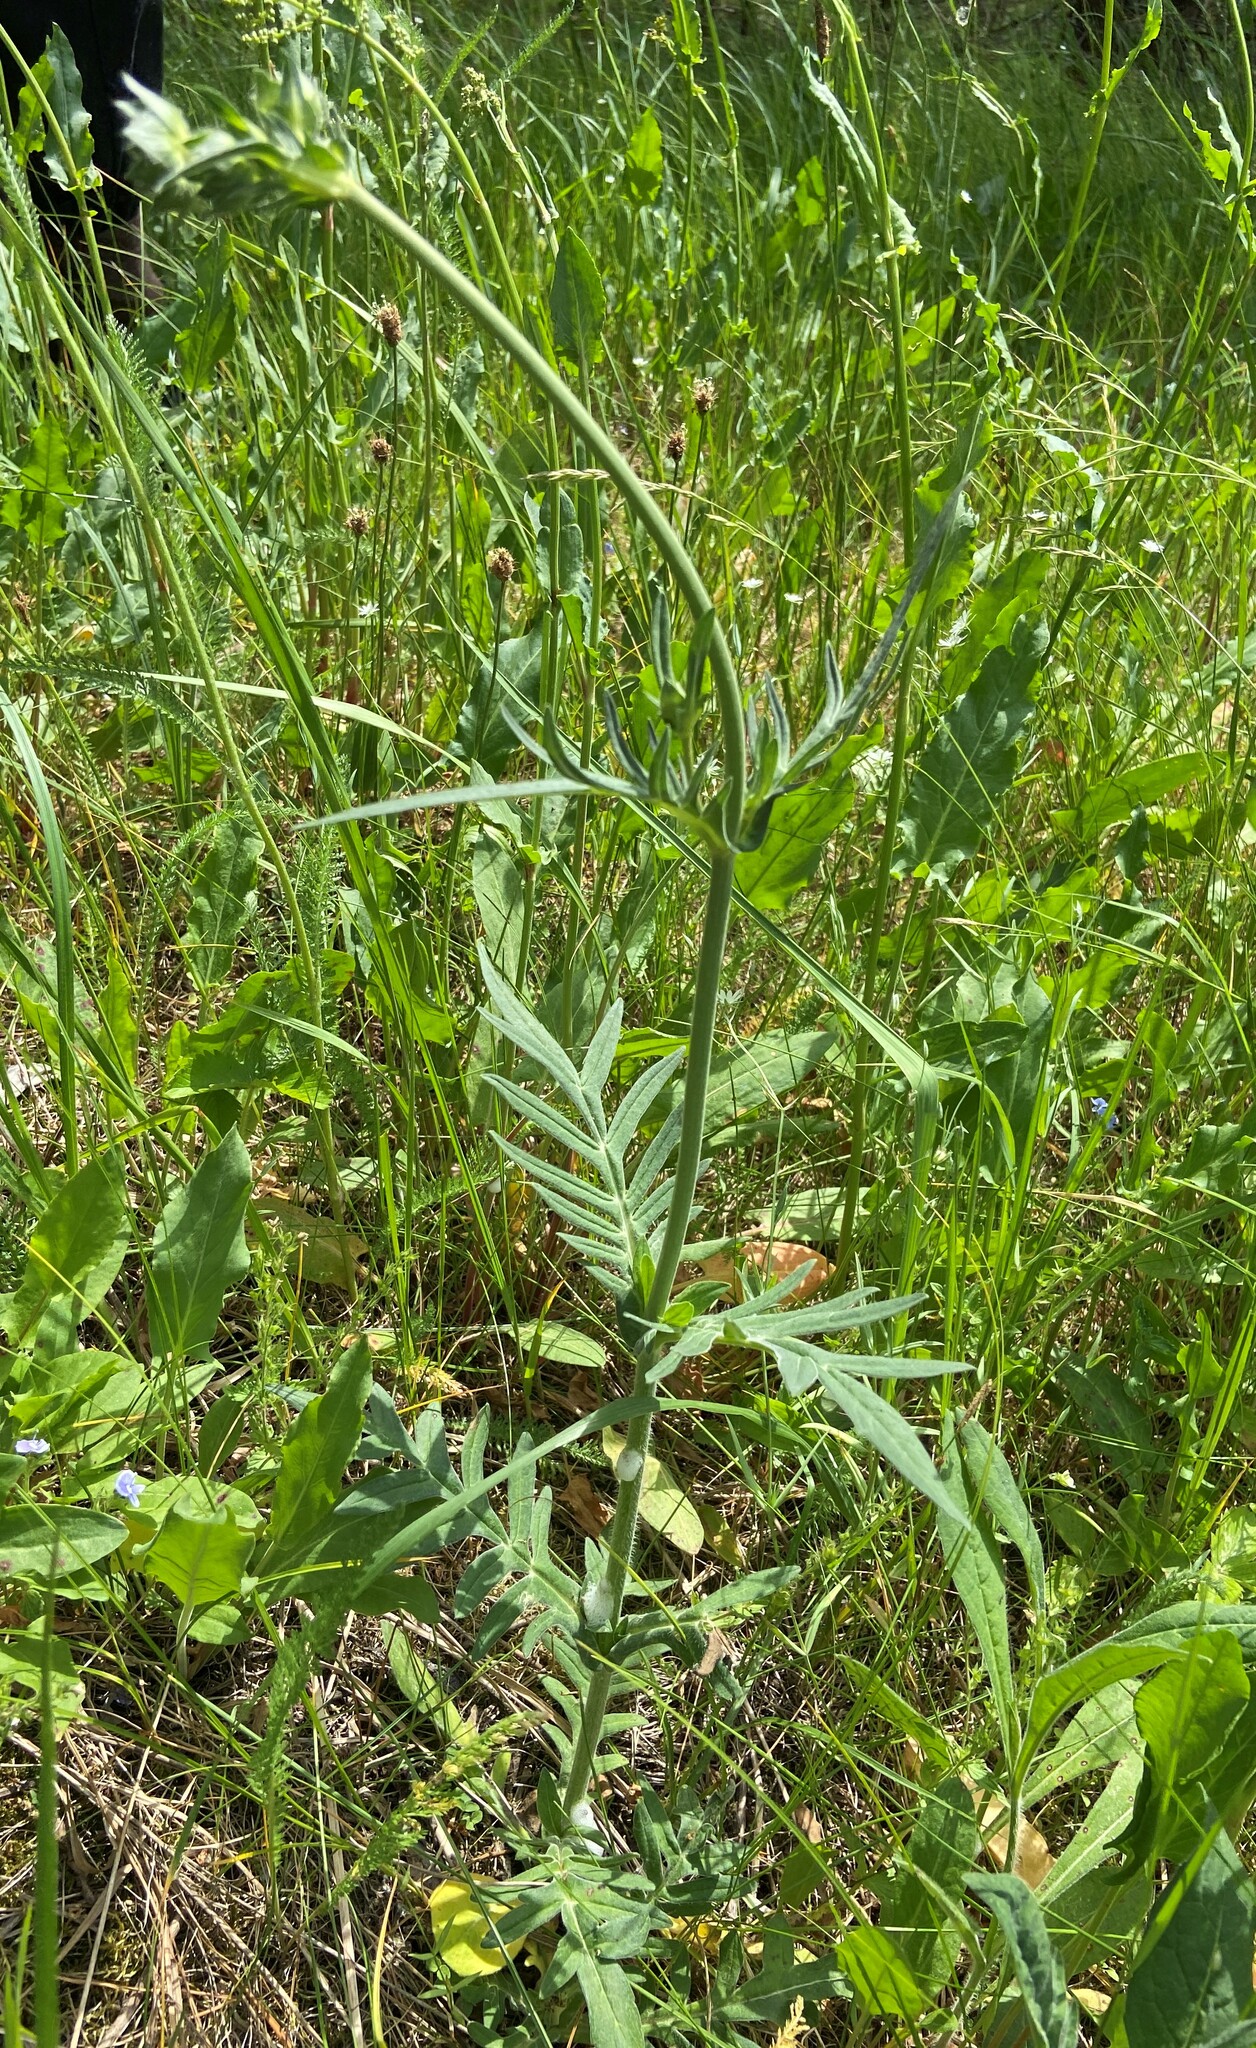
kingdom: Plantae
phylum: Tracheophyta
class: Magnoliopsida
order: Dipsacales
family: Caprifoliaceae
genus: Knautia
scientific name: Knautia arvensis
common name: Field scabiosa
